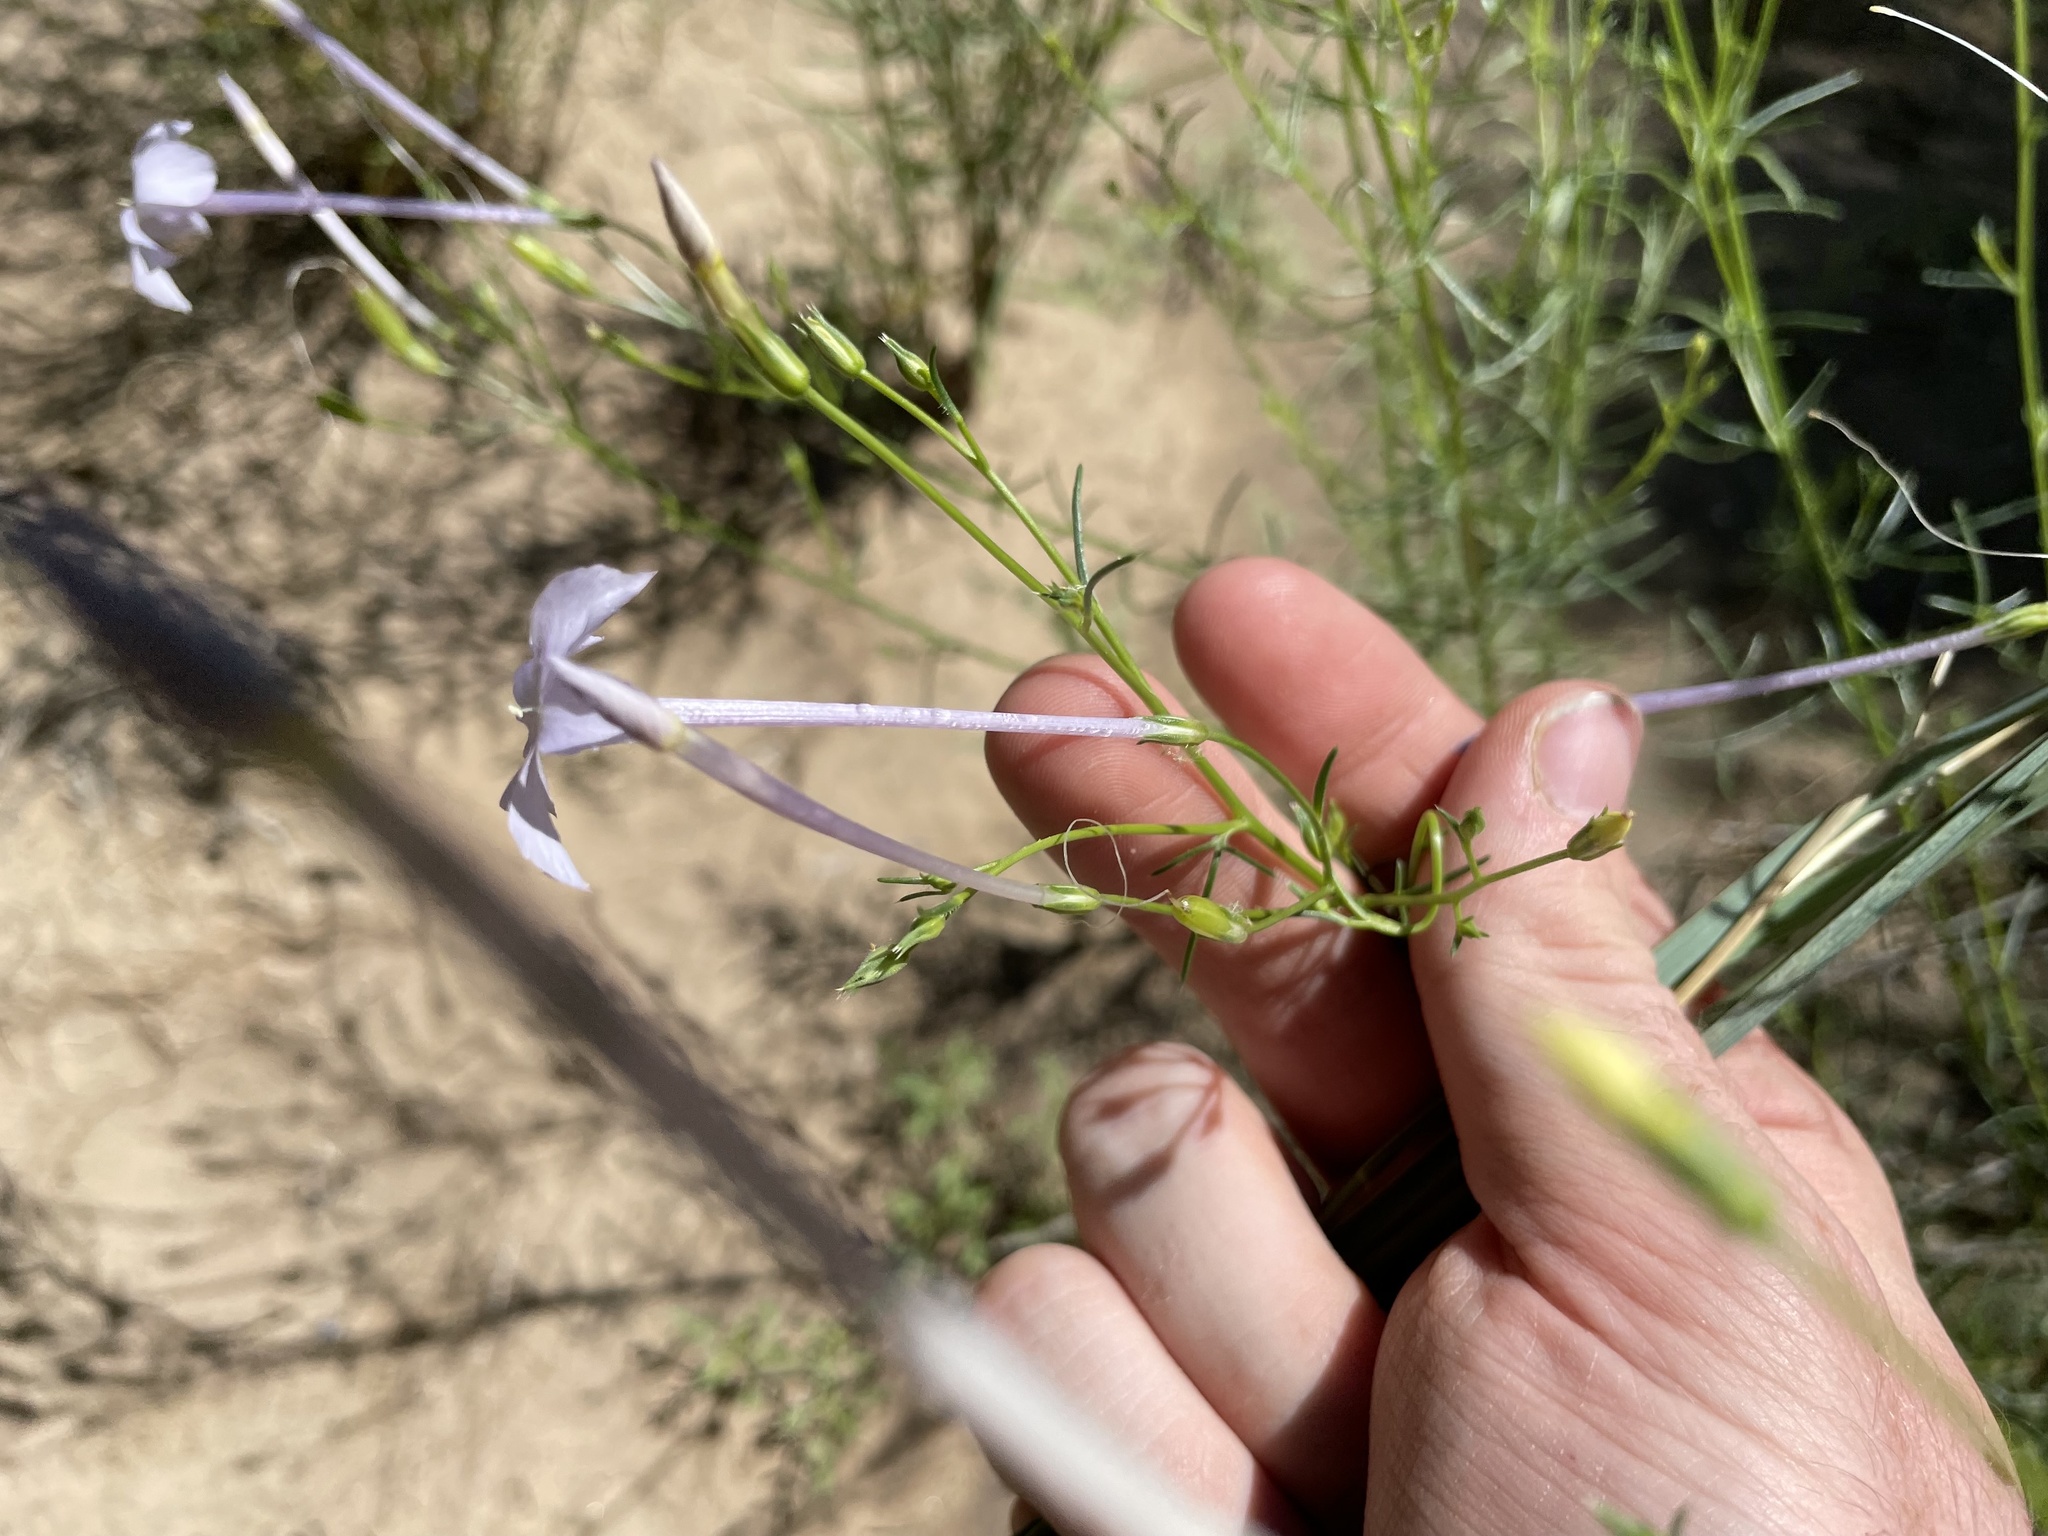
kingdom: Plantae
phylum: Tracheophyta
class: Magnoliopsida
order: Ericales
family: Polemoniaceae
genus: Ipomopsis
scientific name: Ipomopsis longiflora
